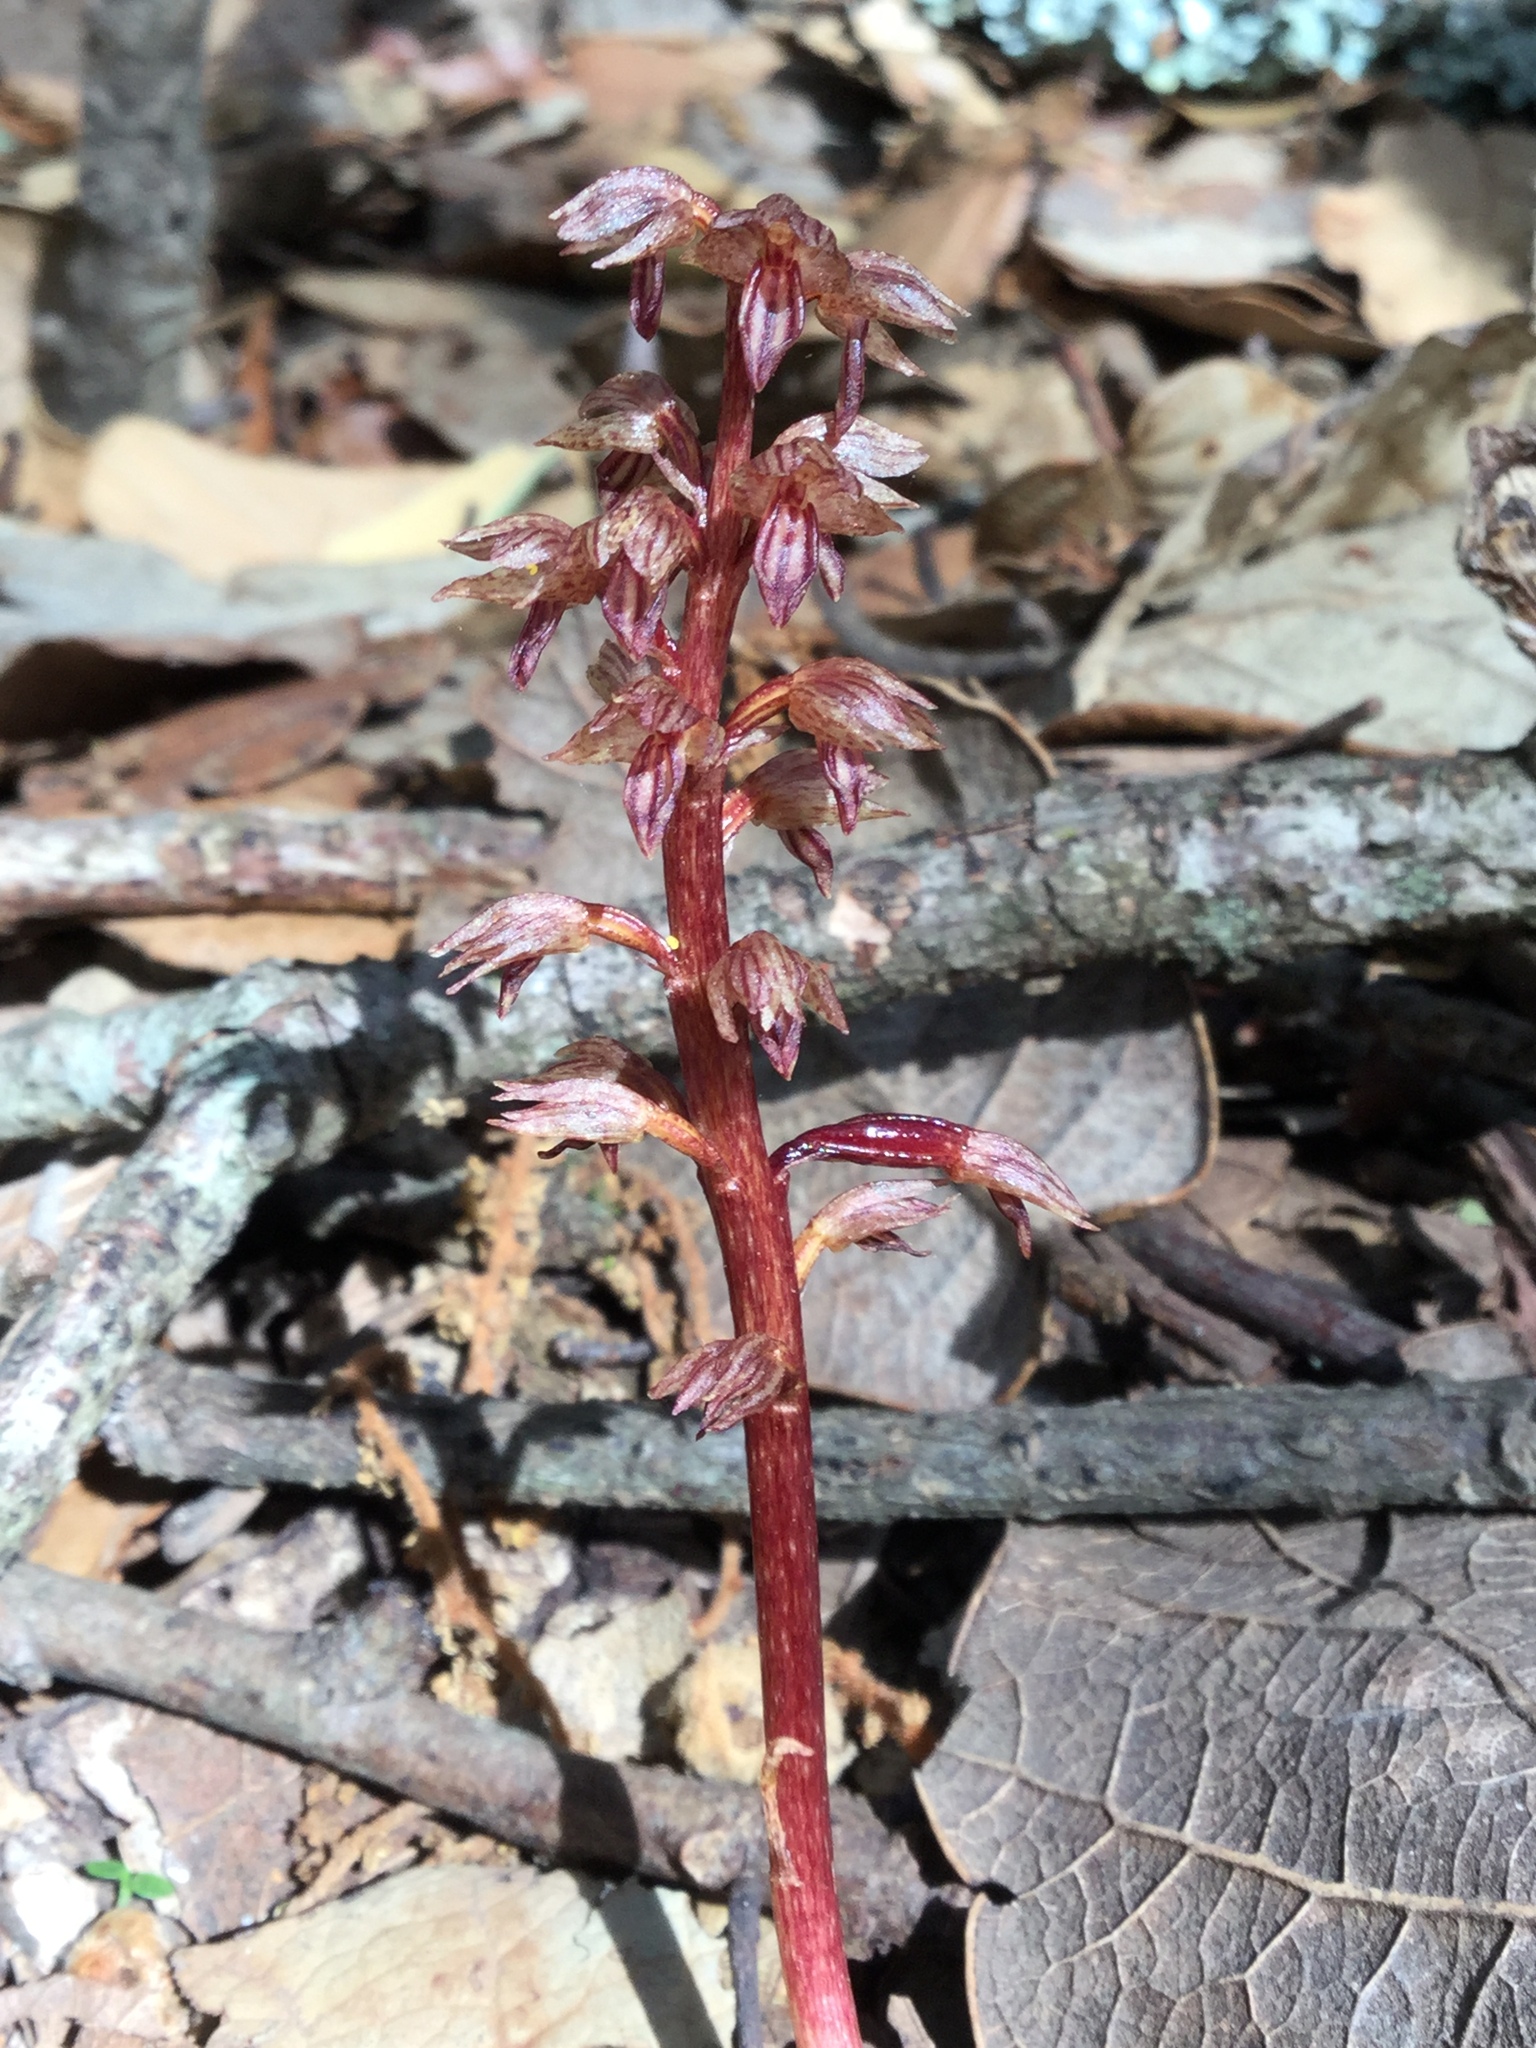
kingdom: Plantae
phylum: Tracheophyta
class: Liliopsida
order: Asparagales
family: Orchidaceae
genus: Corallorhiza
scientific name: Corallorhiza striata
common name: Hooded coralroot
